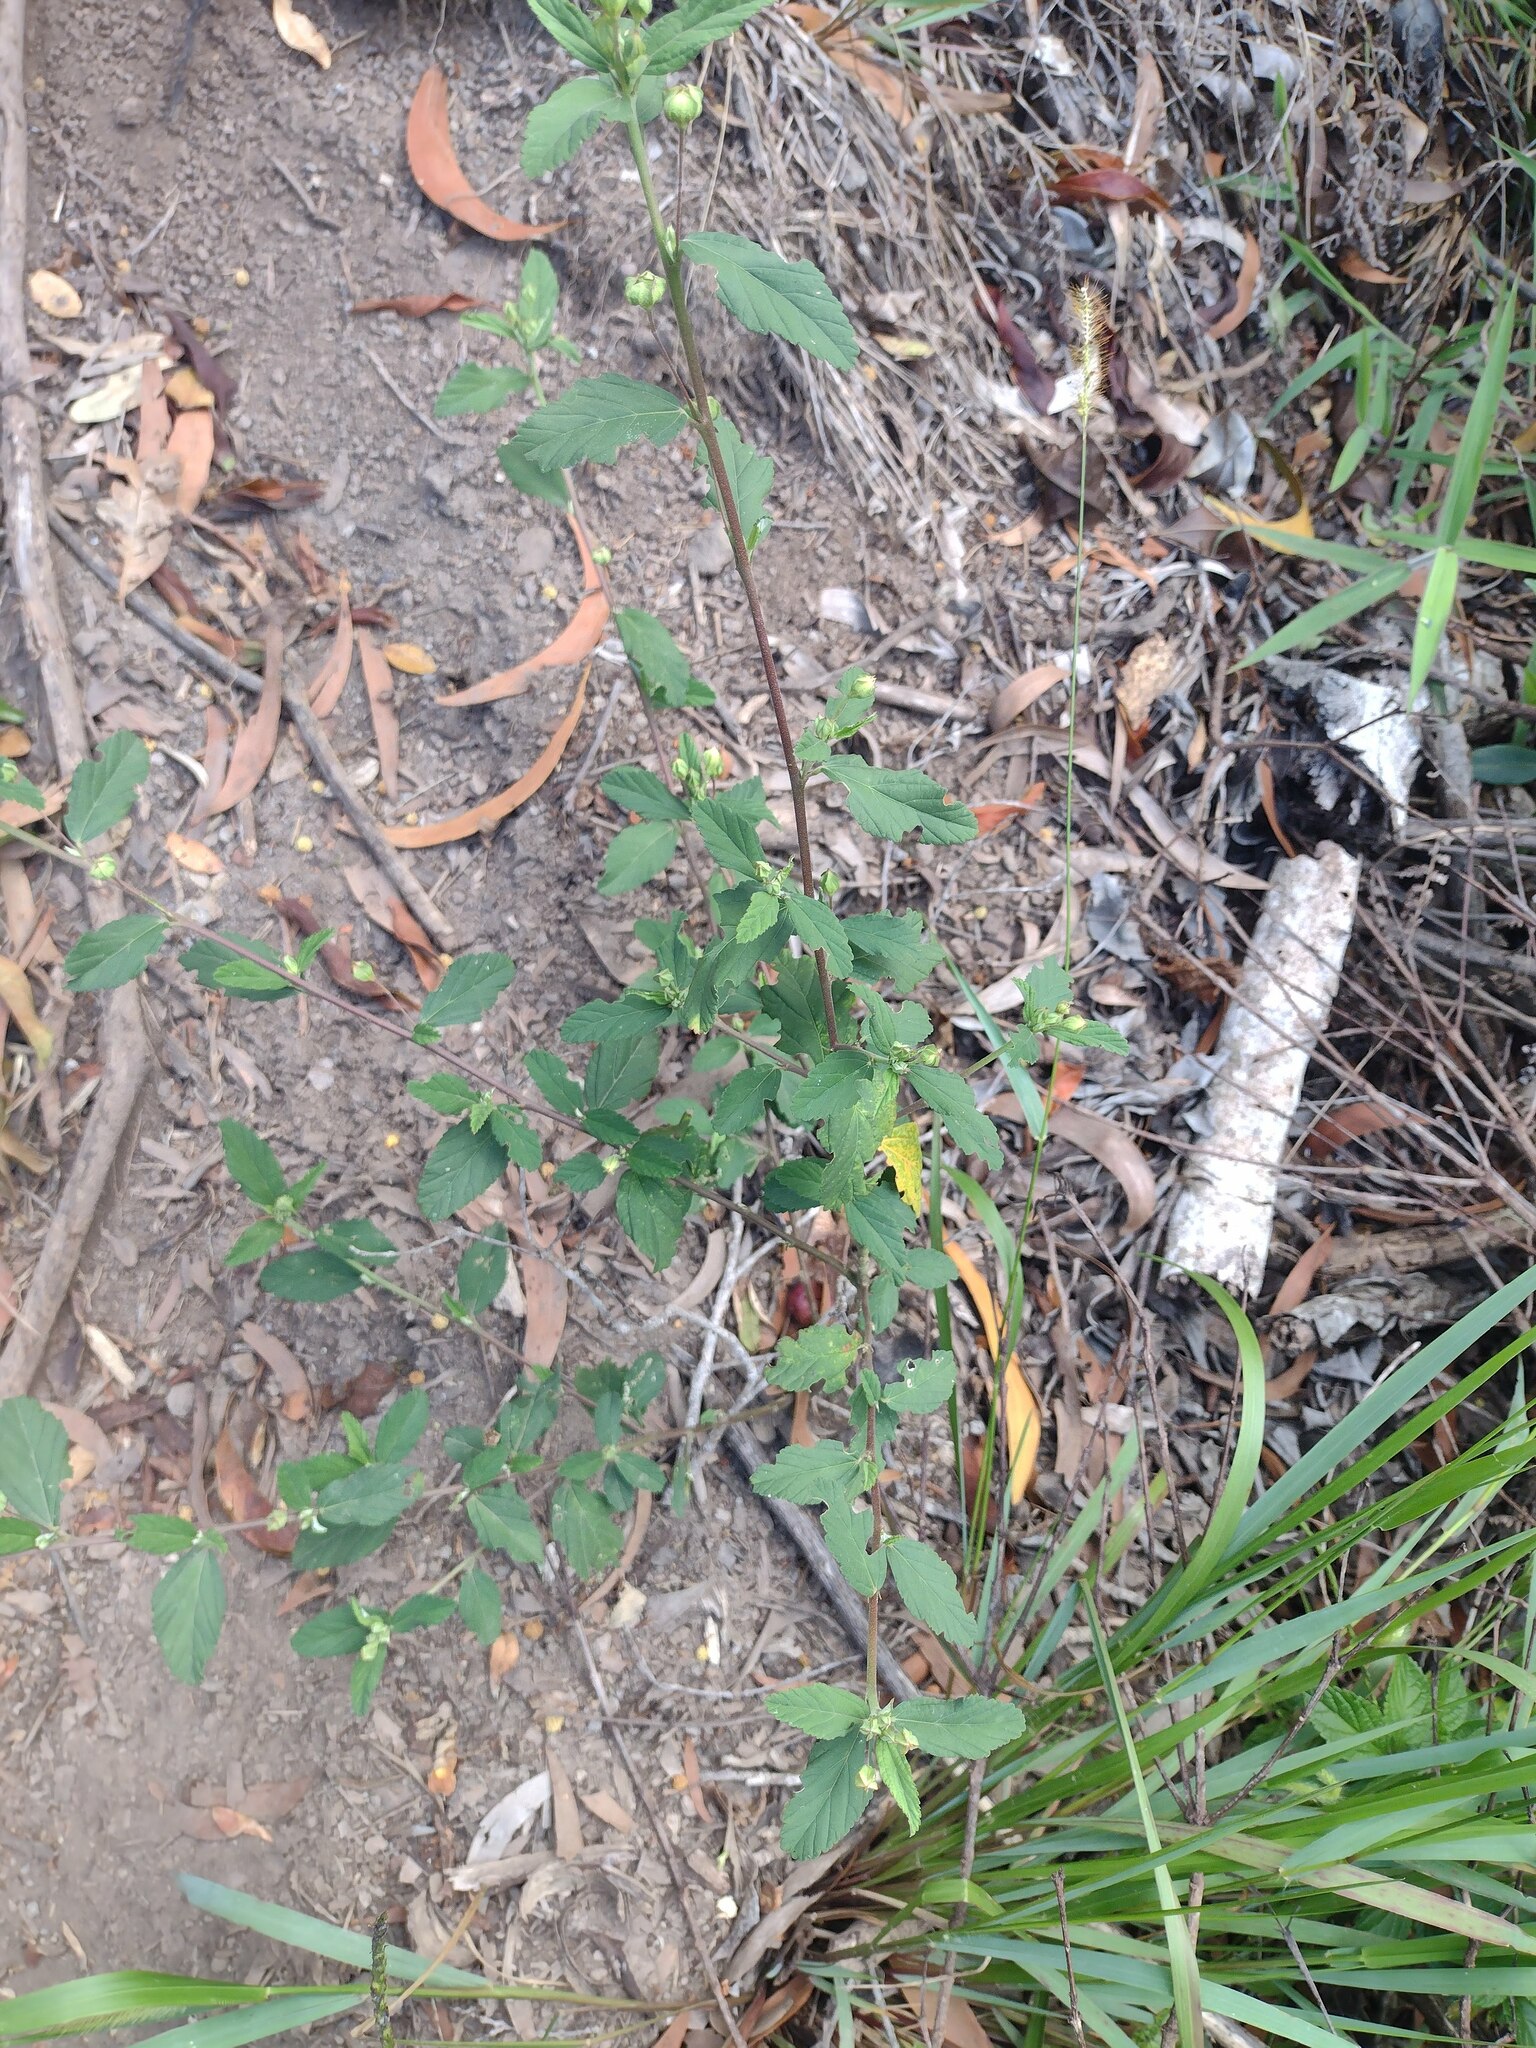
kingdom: Plantae
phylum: Tracheophyta
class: Magnoliopsida
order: Malvales
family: Malvaceae
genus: Sida
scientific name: Sida rhombifolia
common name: Queensland-hemp
